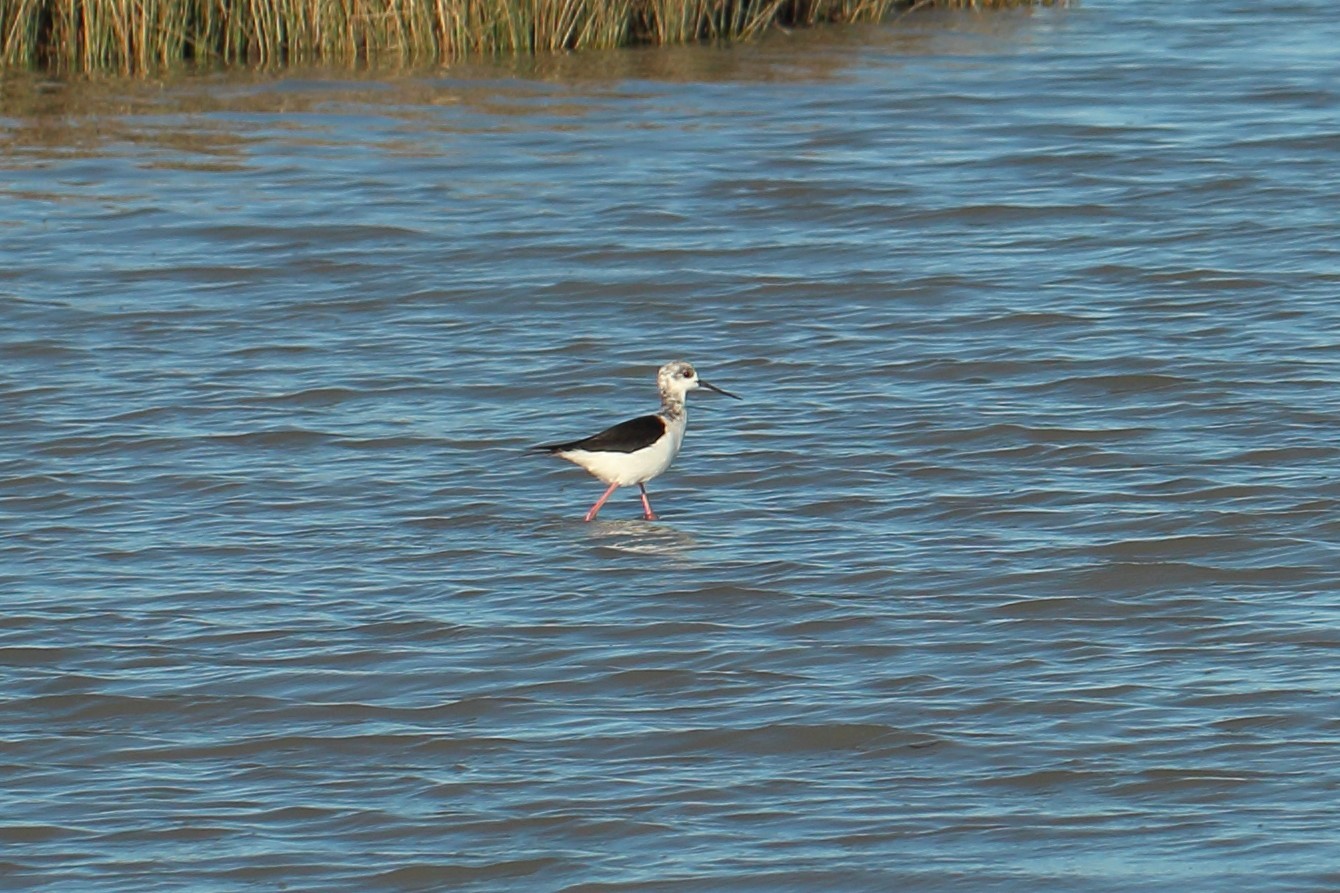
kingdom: Animalia
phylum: Chordata
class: Aves
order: Charadriiformes
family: Recurvirostridae
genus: Himantopus
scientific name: Himantopus leucocephalus
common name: White-headed stilt
